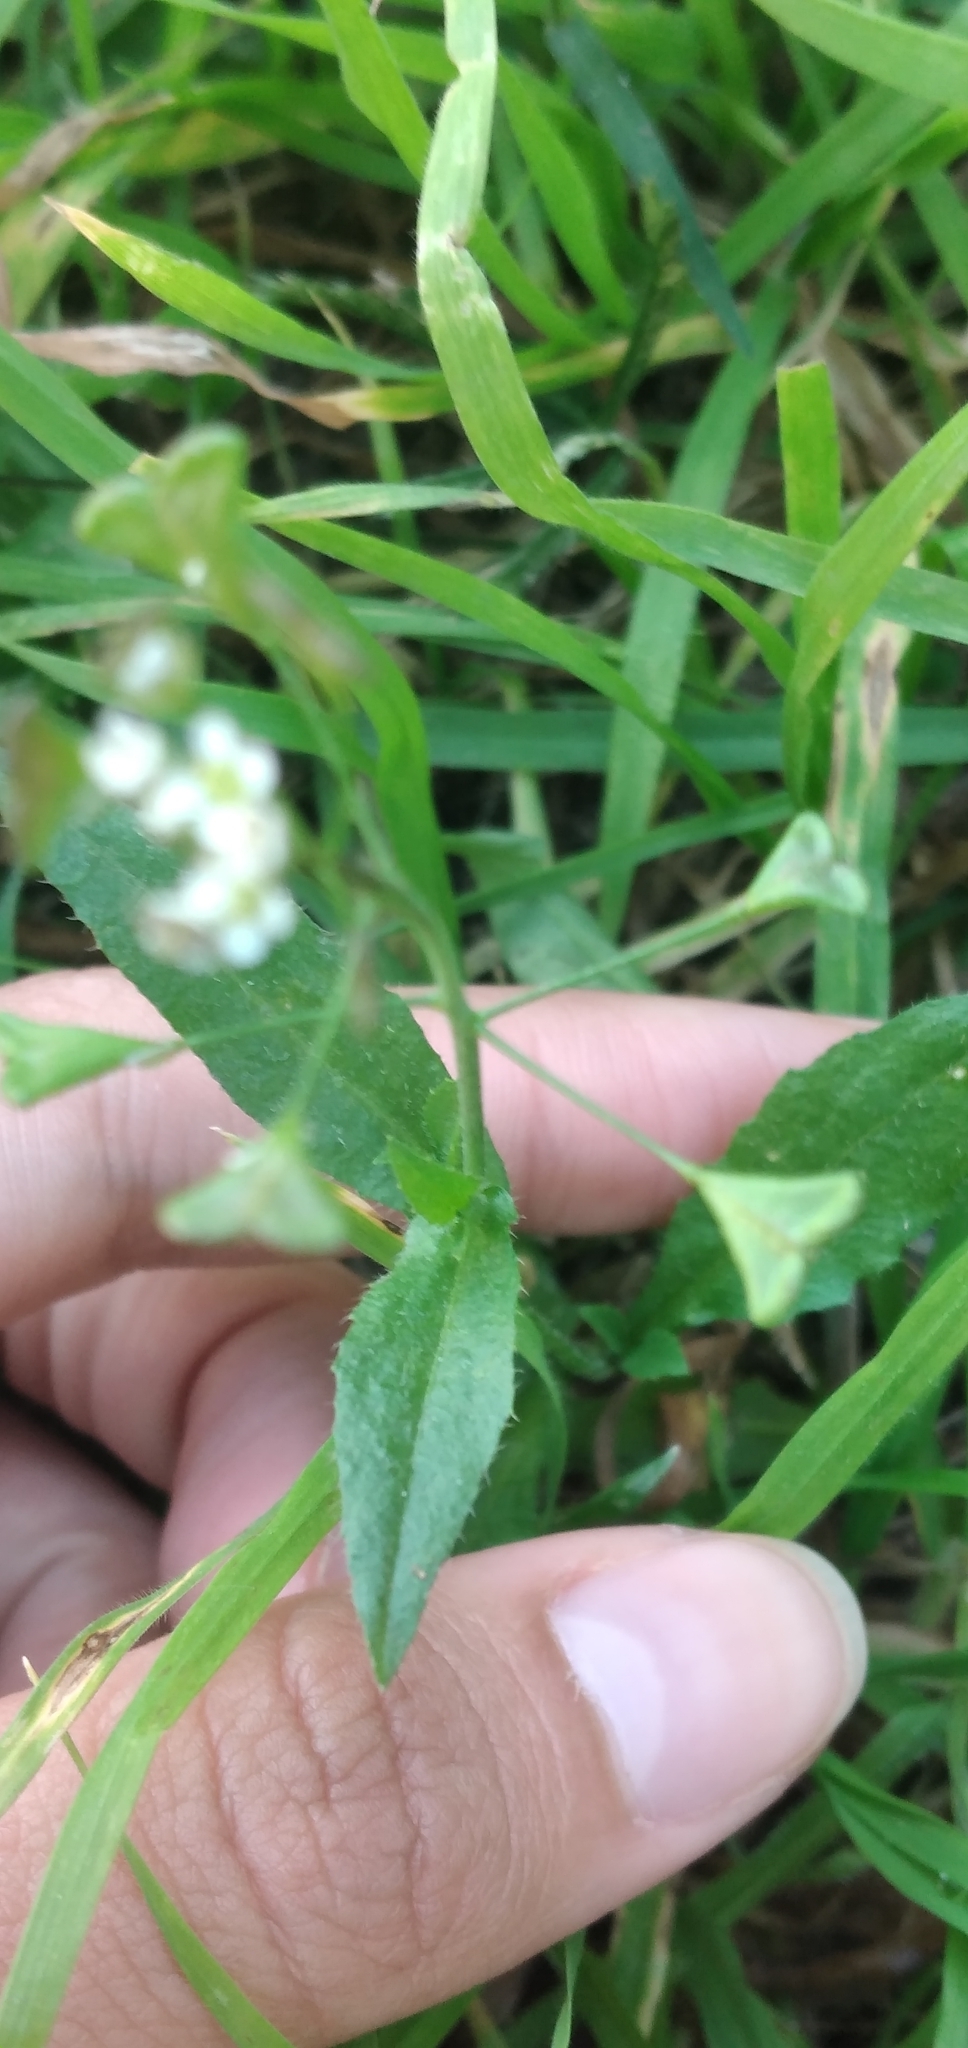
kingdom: Plantae
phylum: Tracheophyta
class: Magnoliopsida
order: Brassicales
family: Brassicaceae
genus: Capsella
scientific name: Capsella bursa-pastoris
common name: Shepherd's purse
